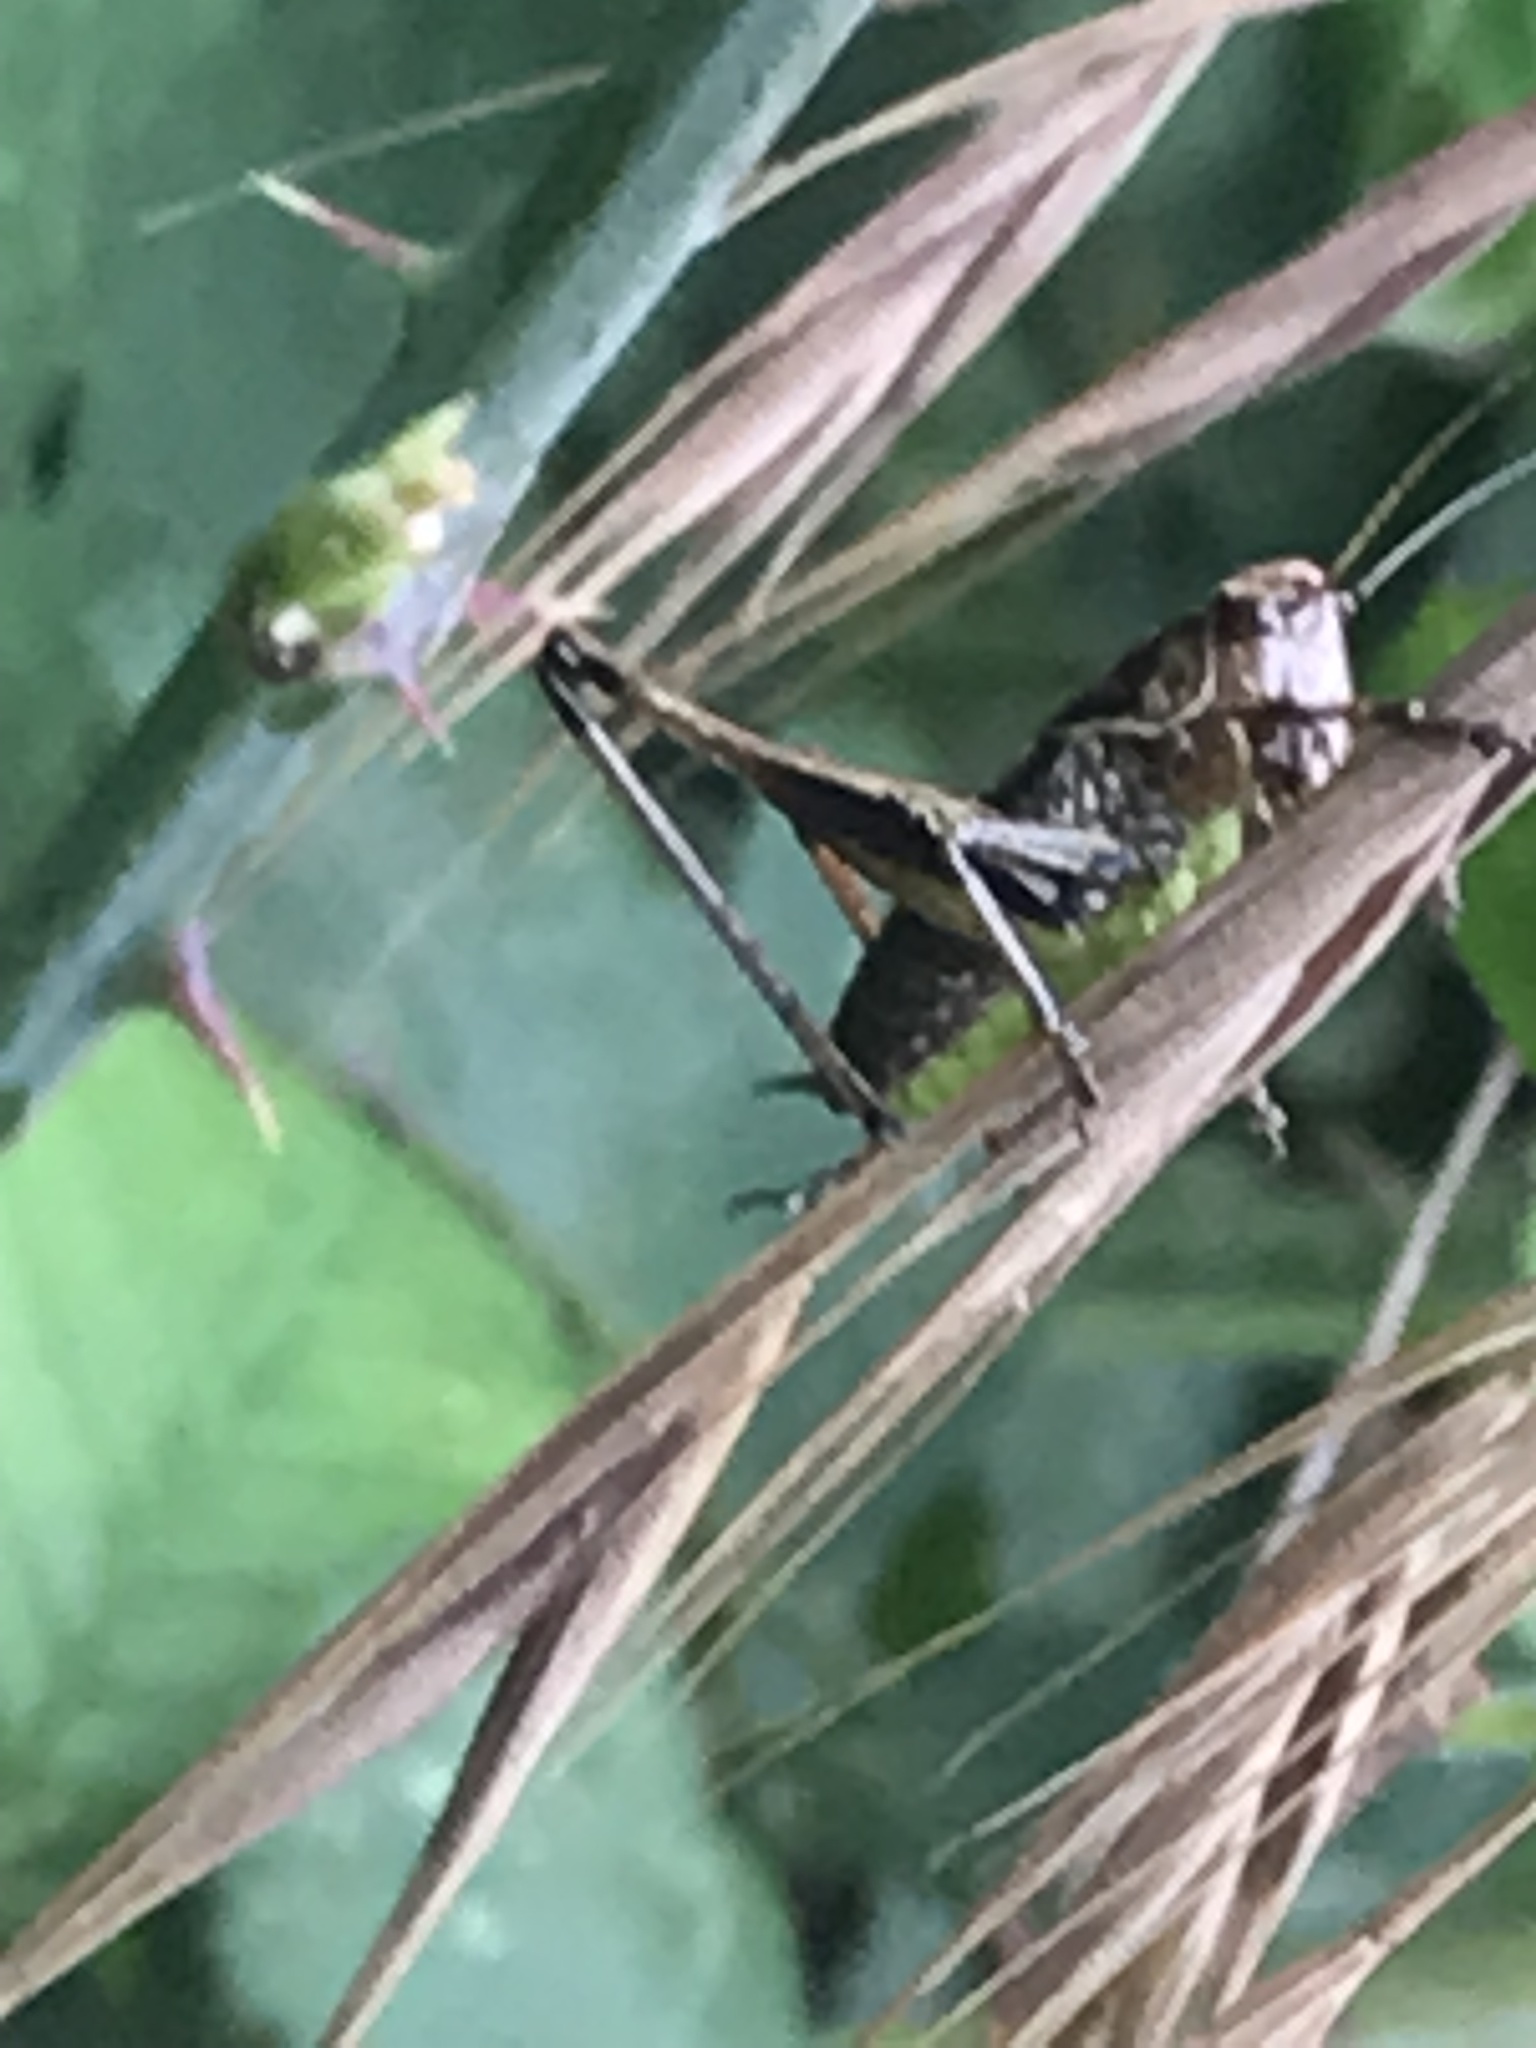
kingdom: Animalia
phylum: Arthropoda
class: Insecta
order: Orthoptera
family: Tettigoniidae
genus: Pholidoptera
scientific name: Pholidoptera griseoaptera
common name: Dark bush-cricket
